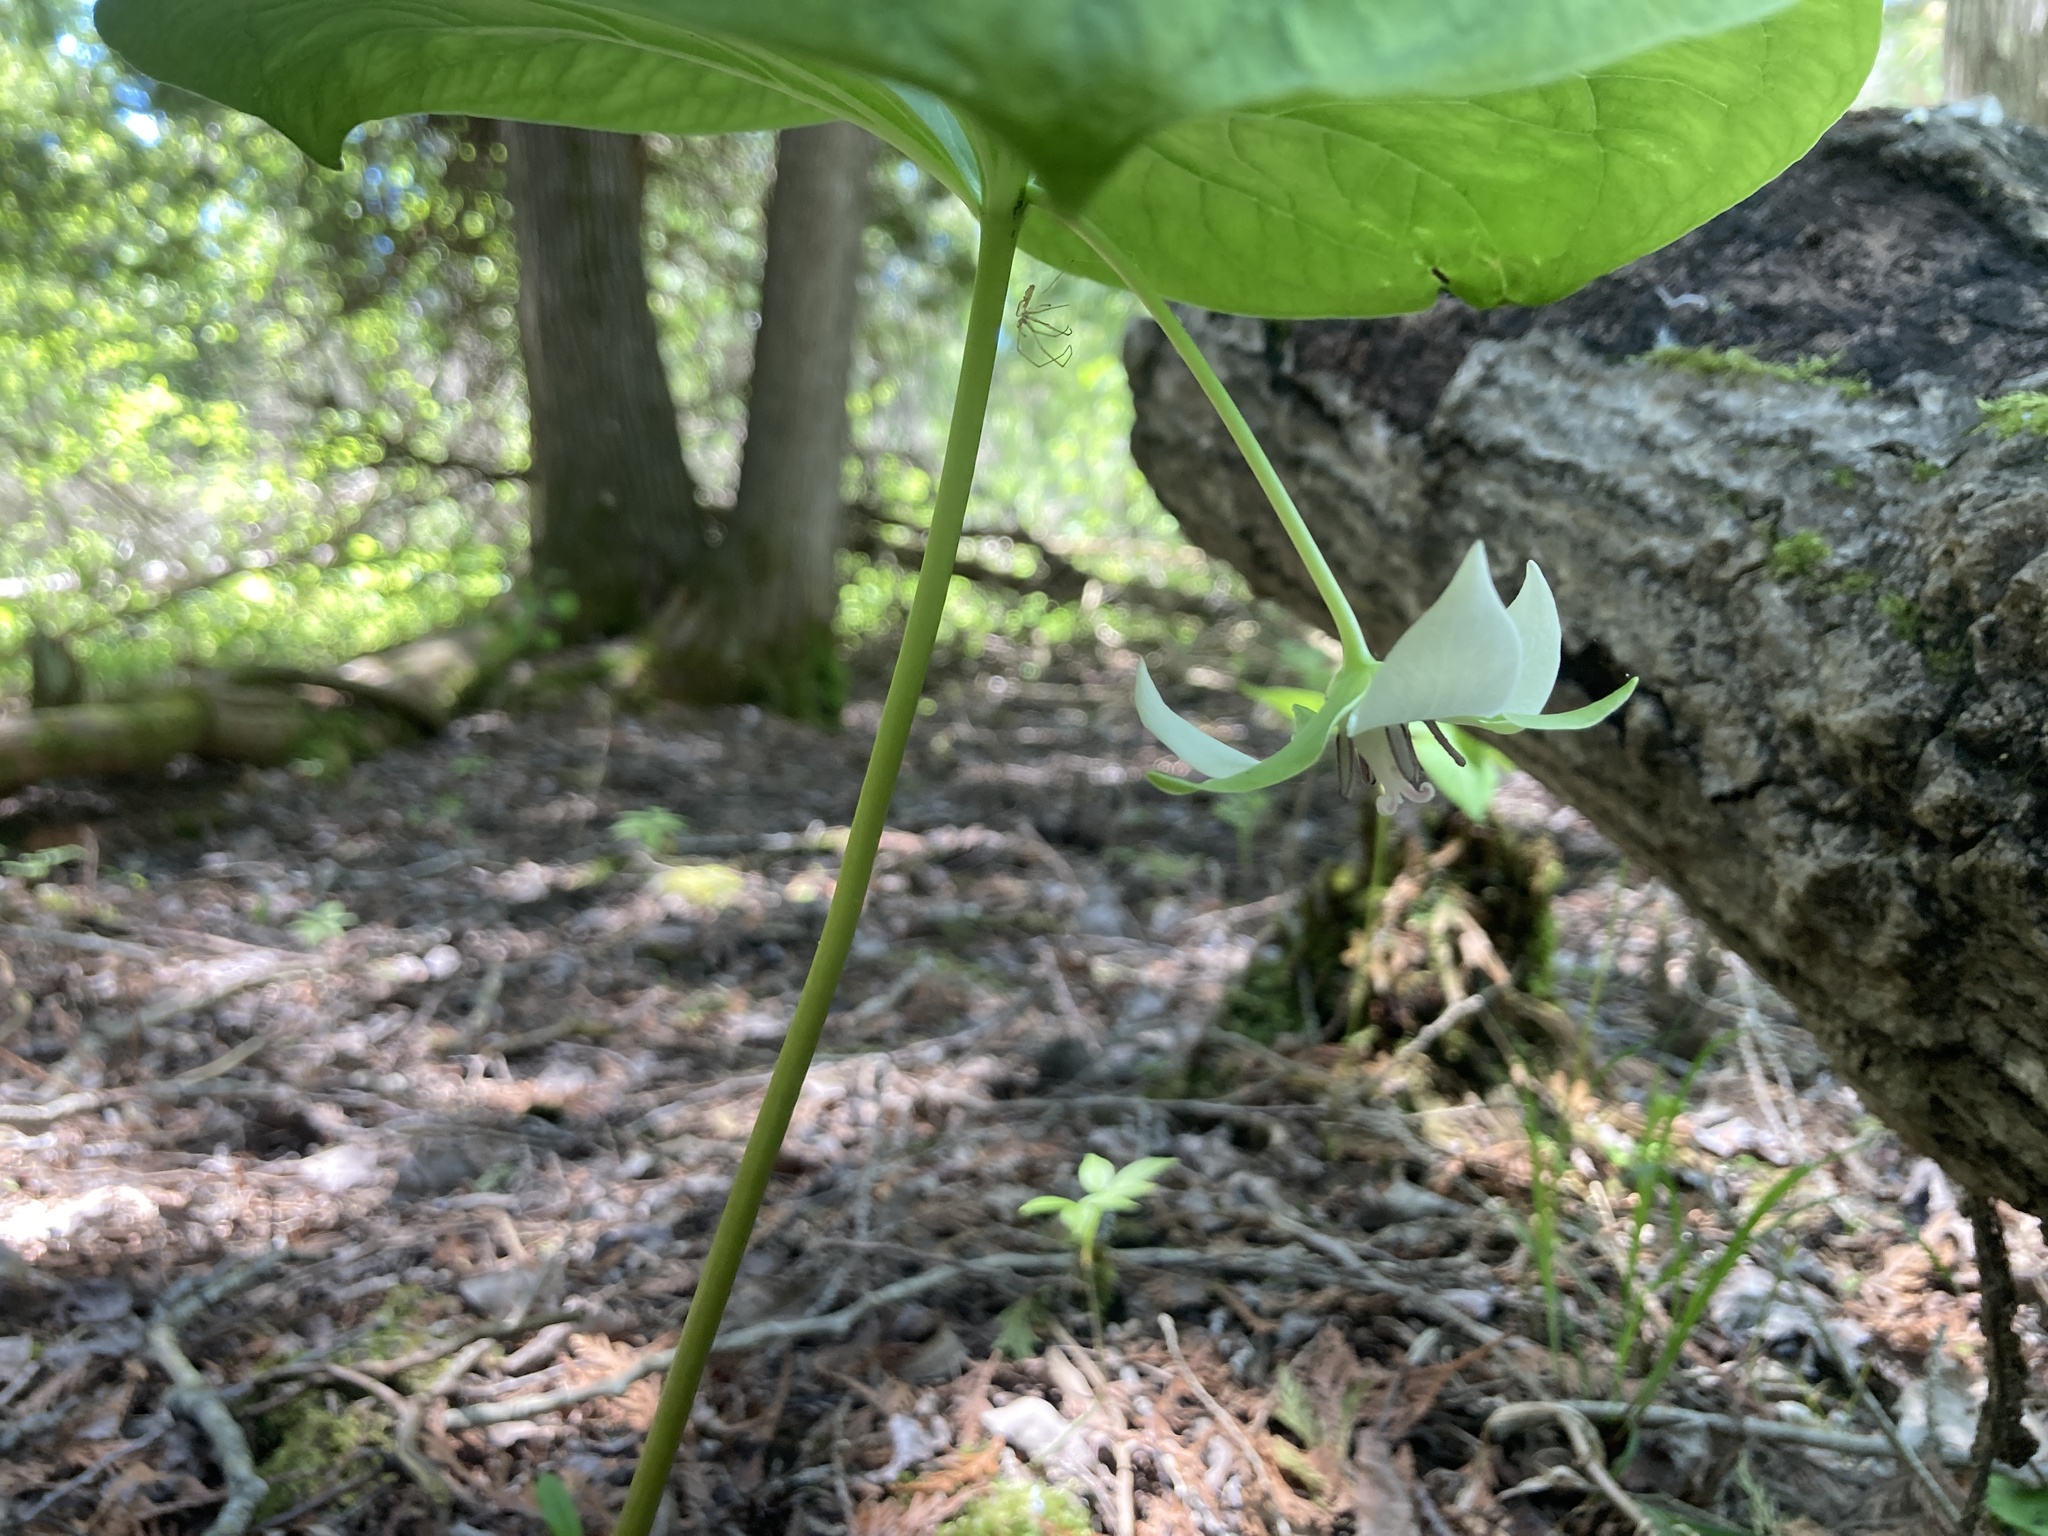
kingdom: Plantae
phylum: Tracheophyta
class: Liliopsida
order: Liliales
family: Melanthiaceae
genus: Trillium
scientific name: Trillium cernuum
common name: Nodding trillium
